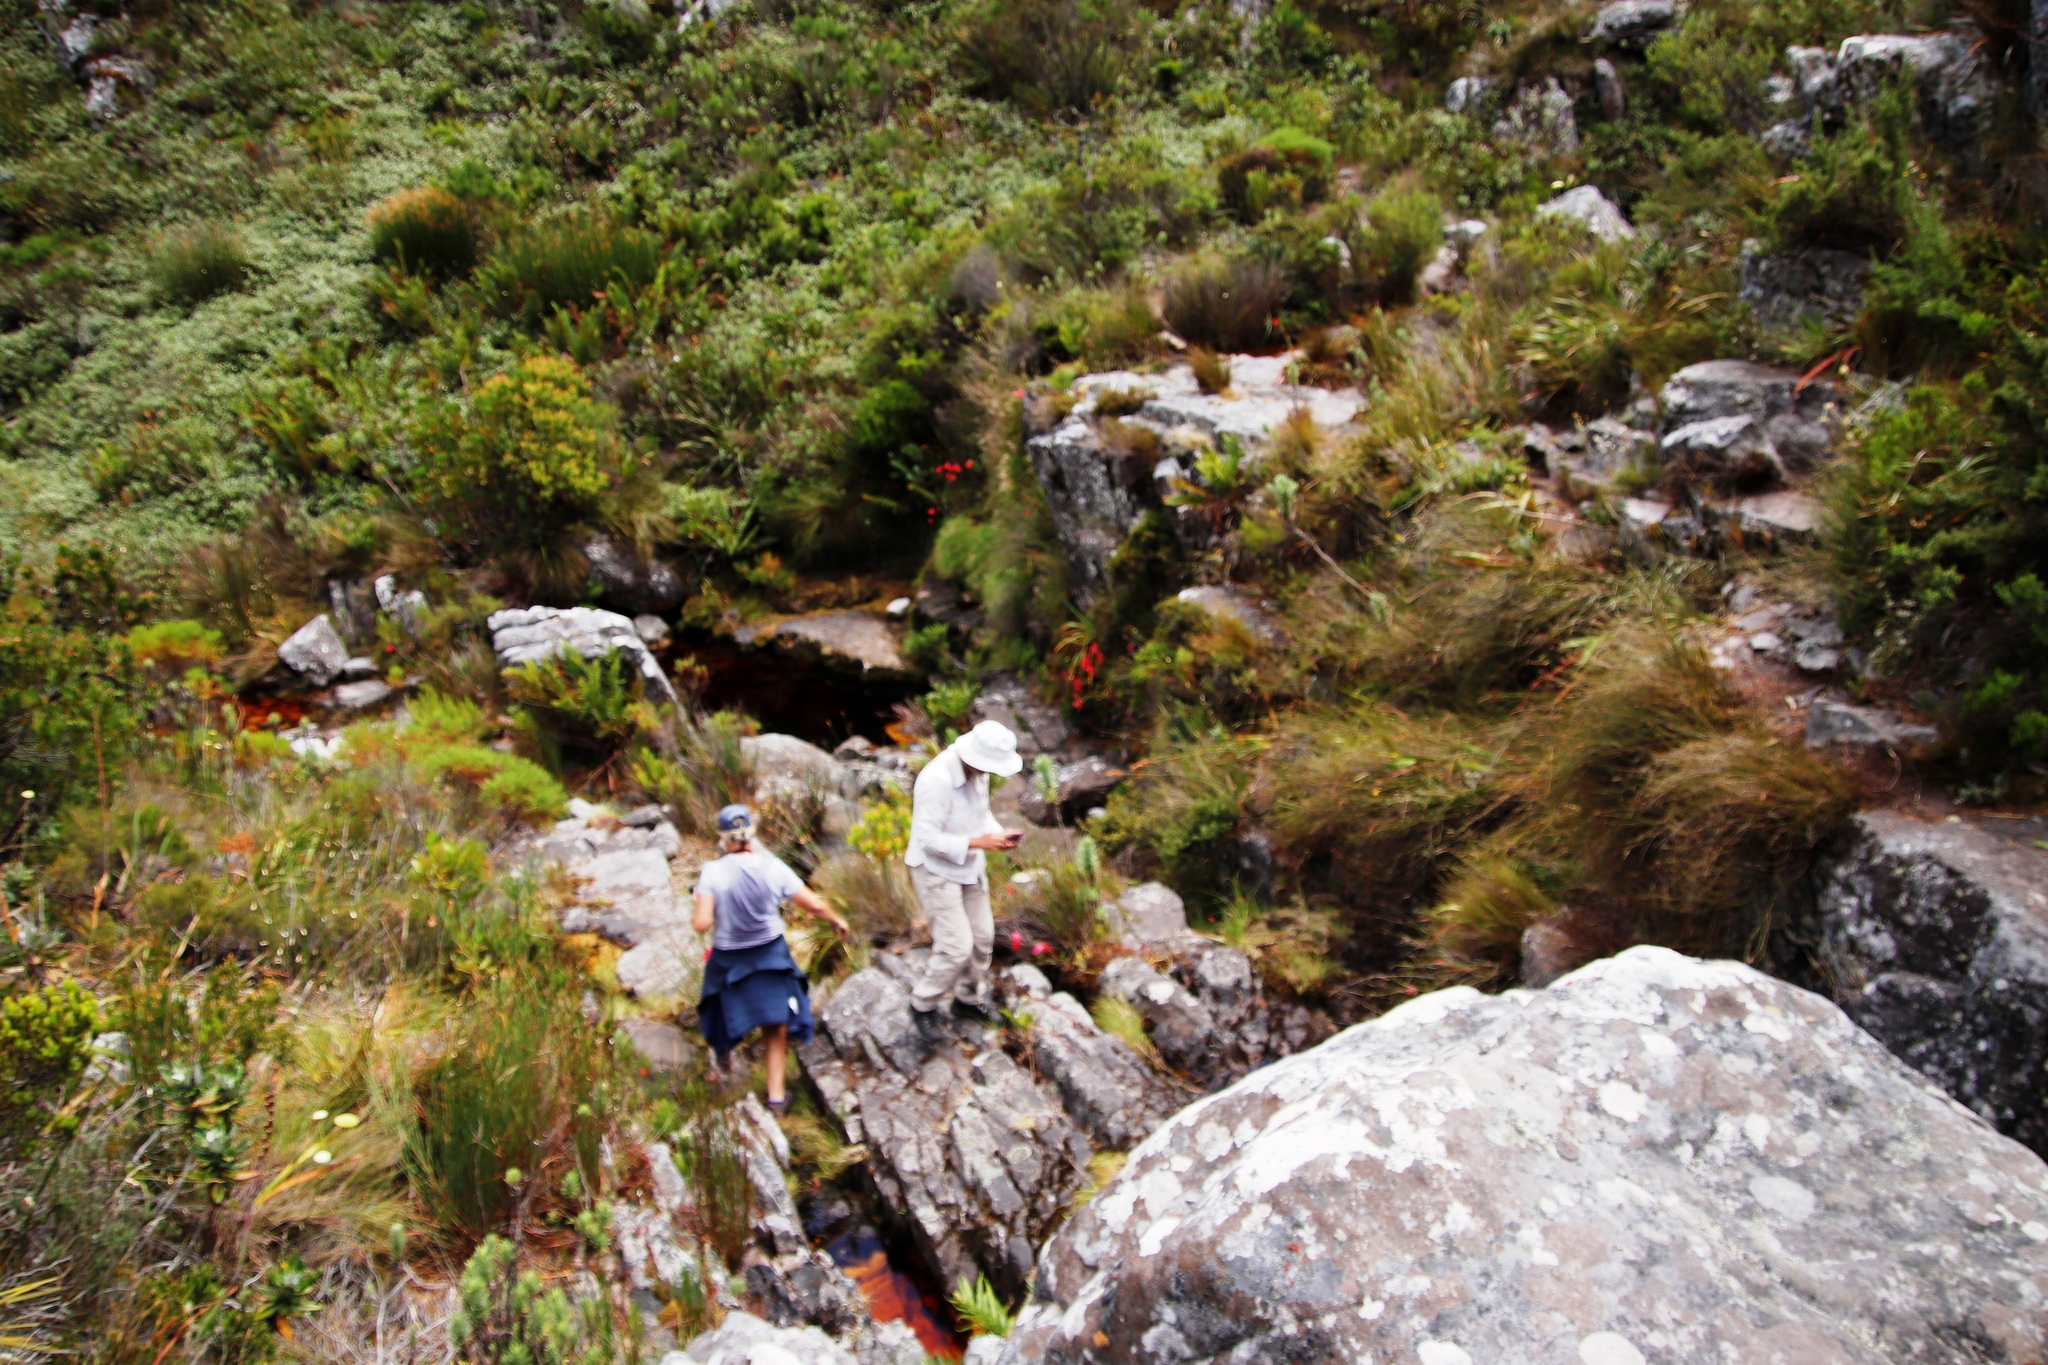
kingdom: Plantae
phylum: Tracheophyta
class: Liliopsida
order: Asparagales
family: Orchidaceae
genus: Disa
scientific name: Disa uniflora
